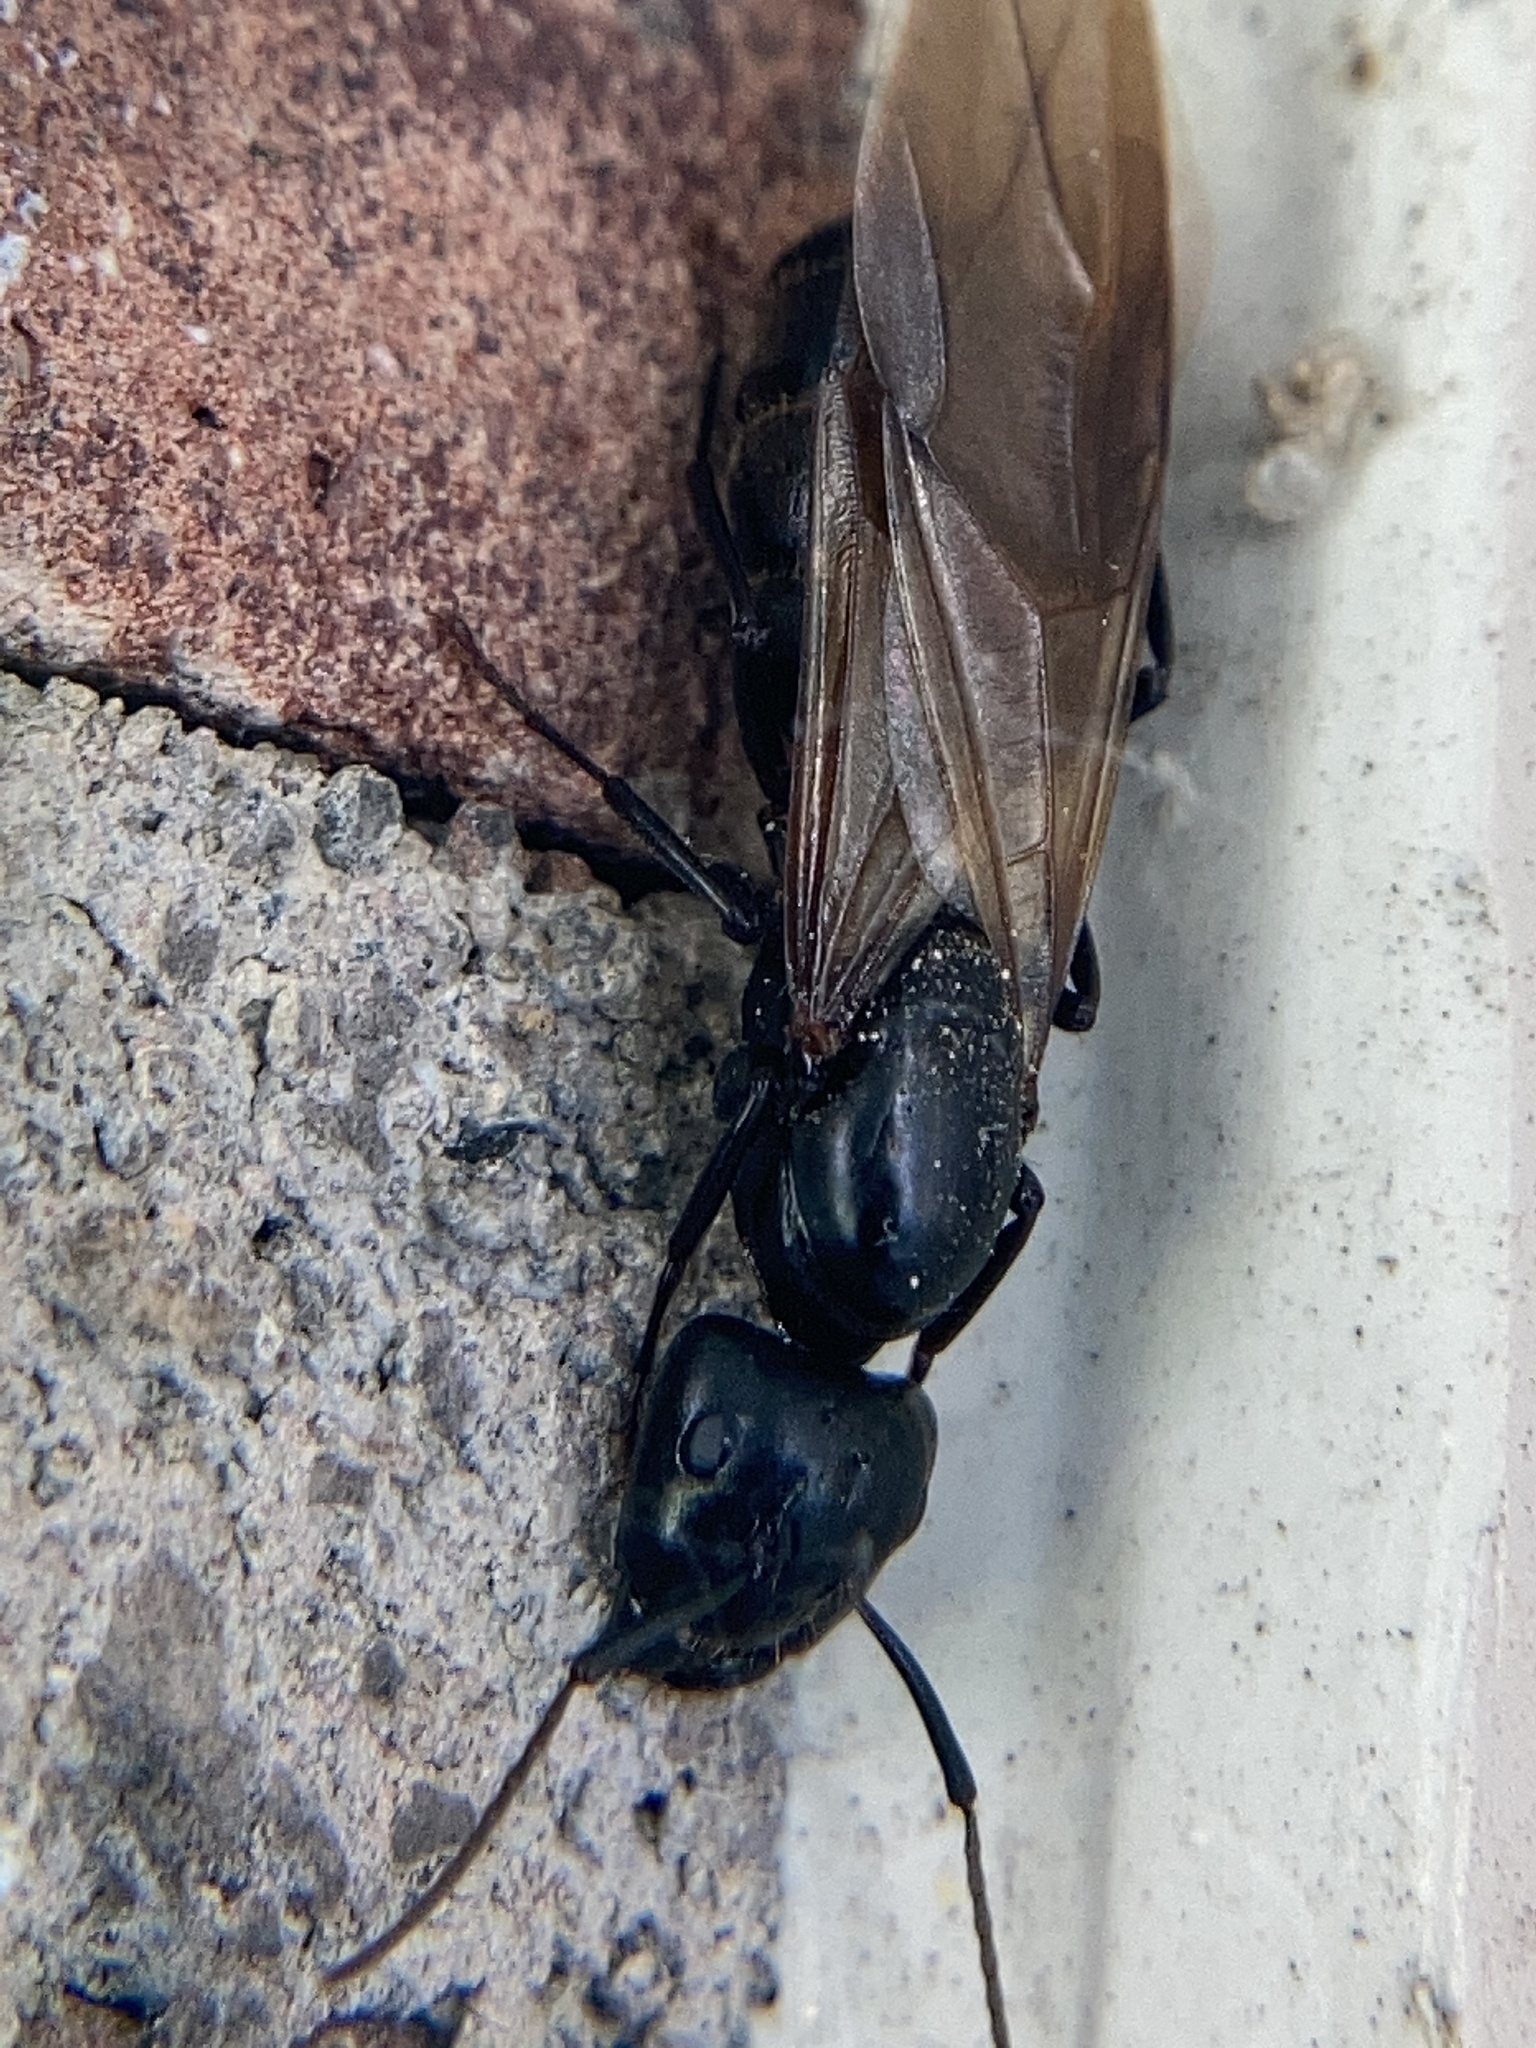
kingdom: Animalia
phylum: Arthropoda
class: Insecta
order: Hymenoptera
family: Formicidae
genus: Camponotus
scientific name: Camponotus pennsylvanicus
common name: Black carpenter ant
